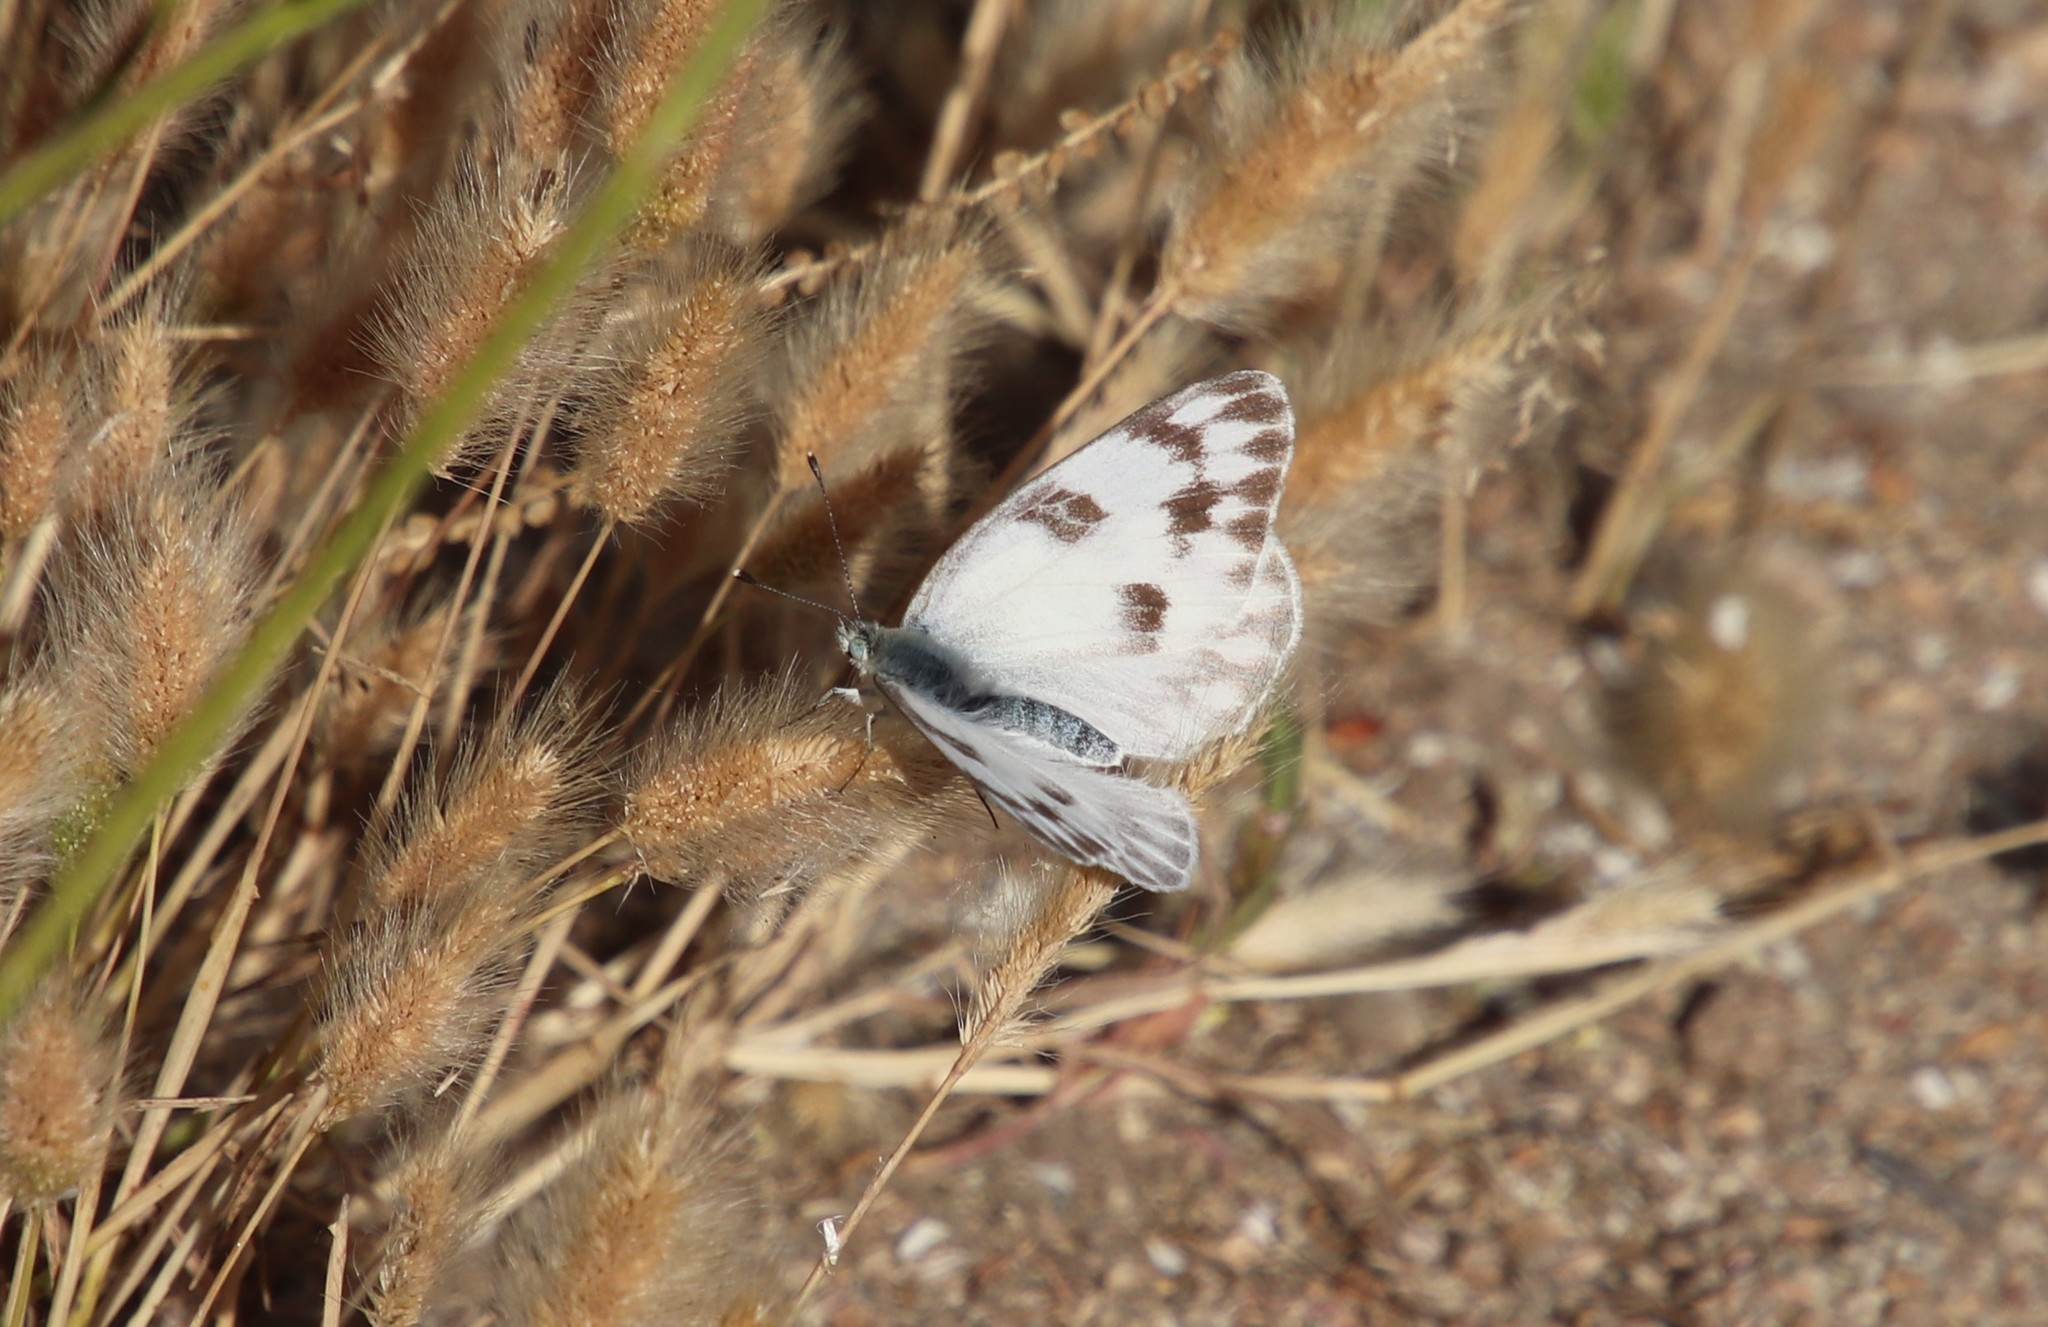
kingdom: Animalia
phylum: Arthropoda
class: Insecta
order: Lepidoptera
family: Pieridae
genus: Pontia
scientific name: Pontia protodice
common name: Checkered white
